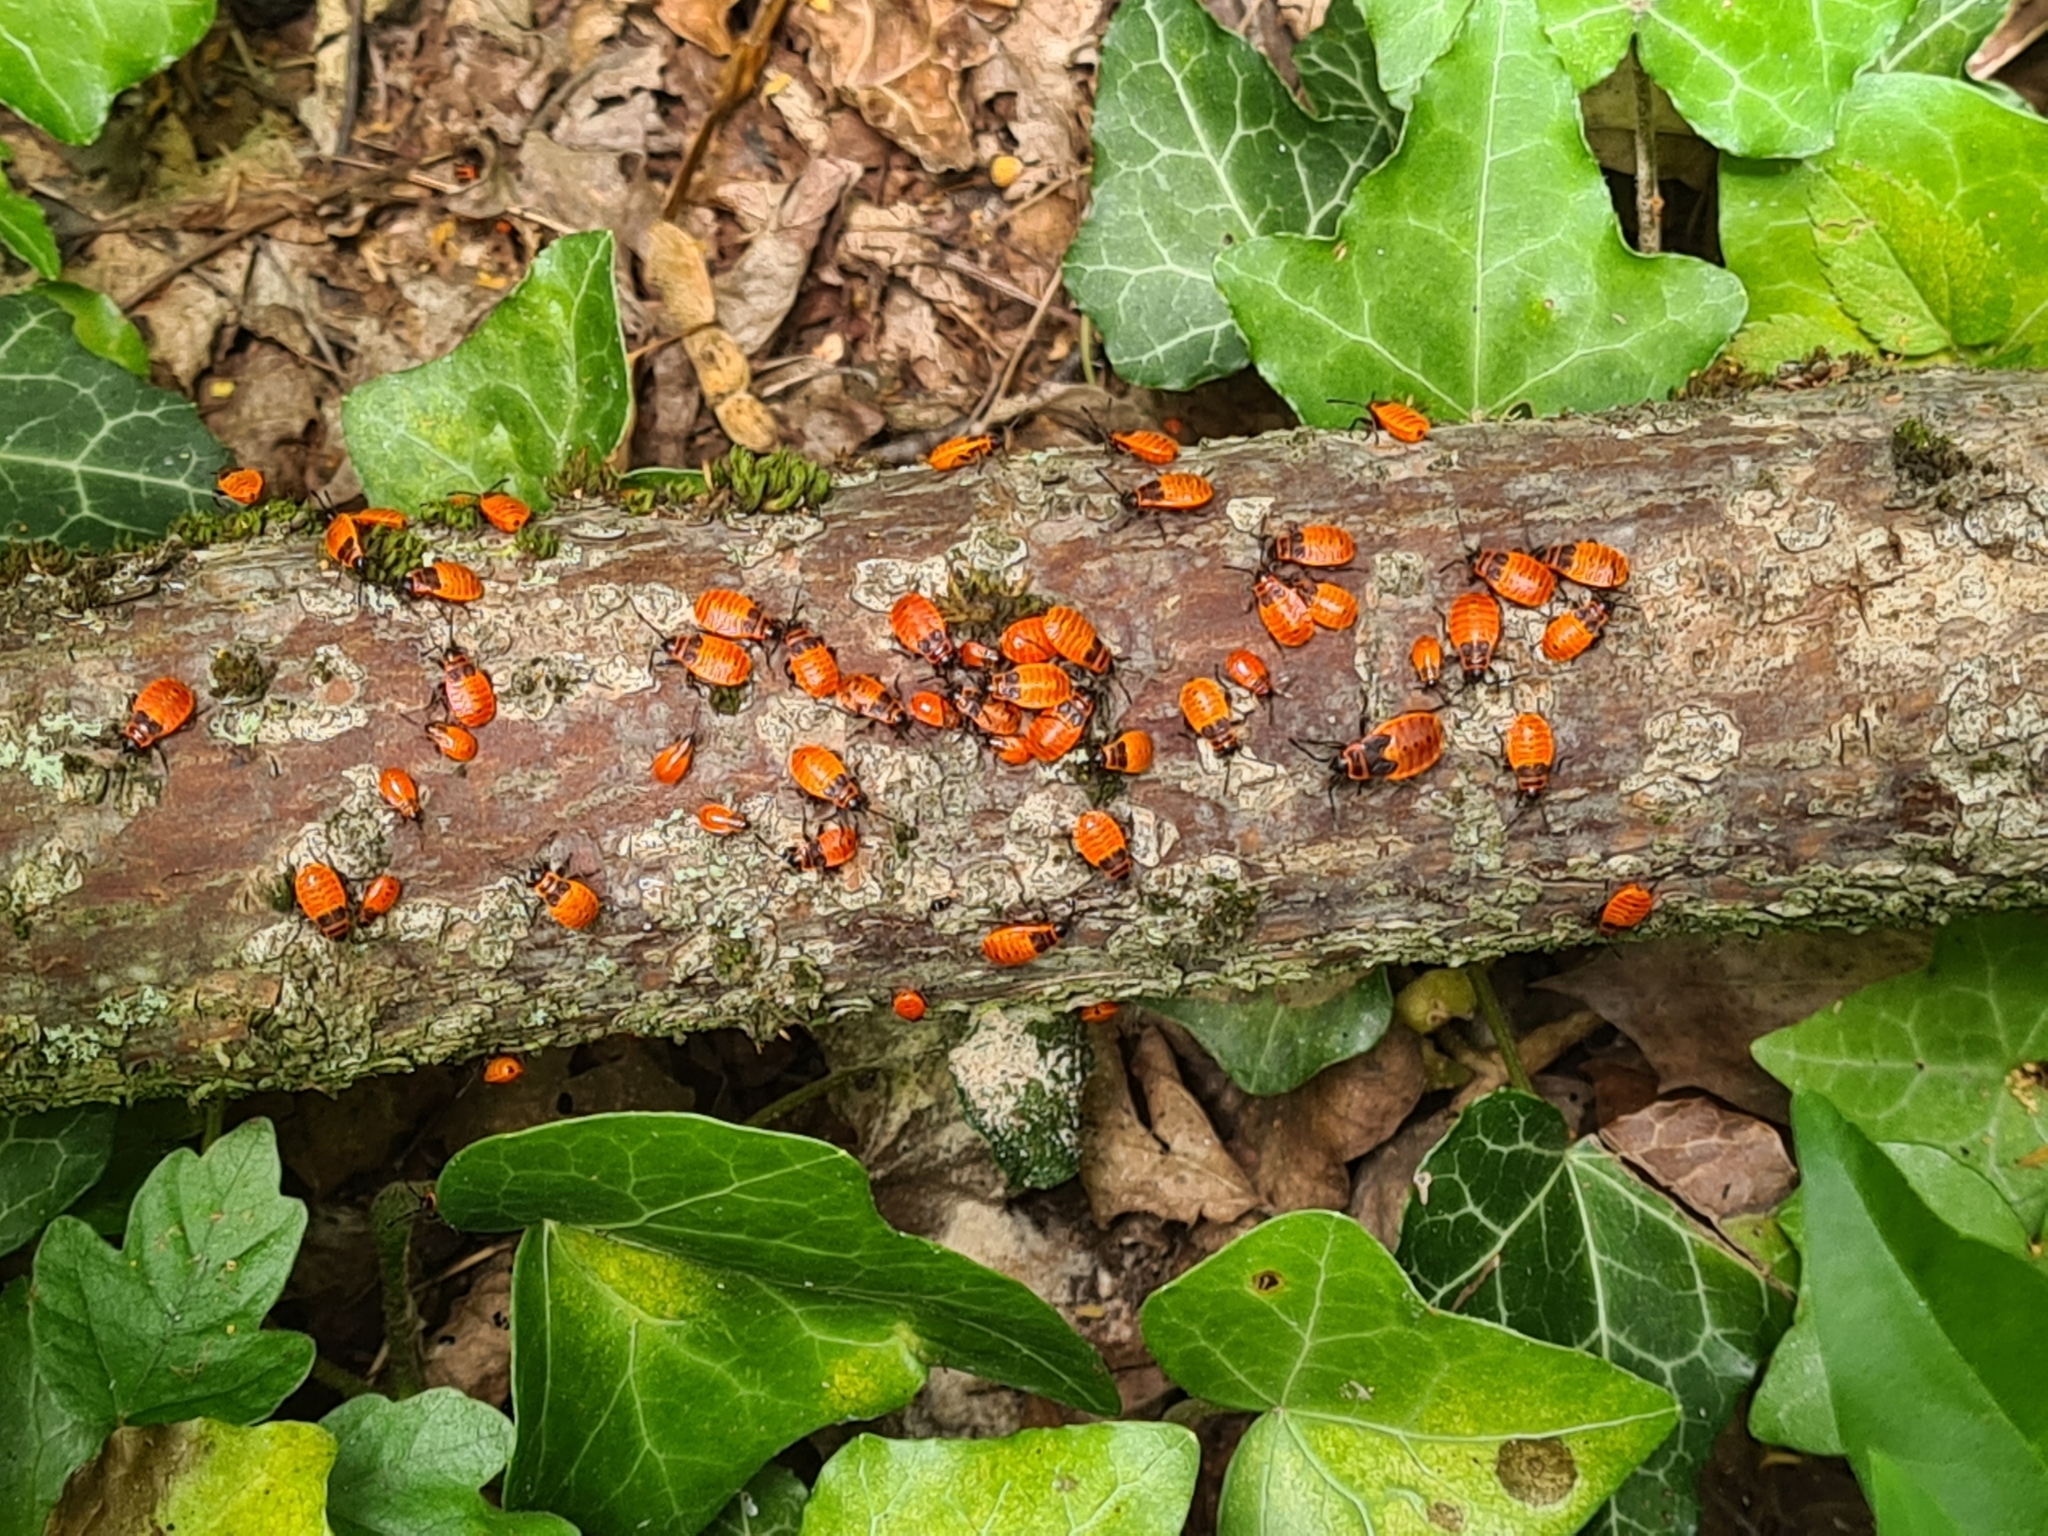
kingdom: Animalia
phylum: Arthropoda
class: Insecta
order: Hemiptera
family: Pyrrhocoridae
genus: Pyrrhocoris
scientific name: Pyrrhocoris apterus
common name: Firebug
